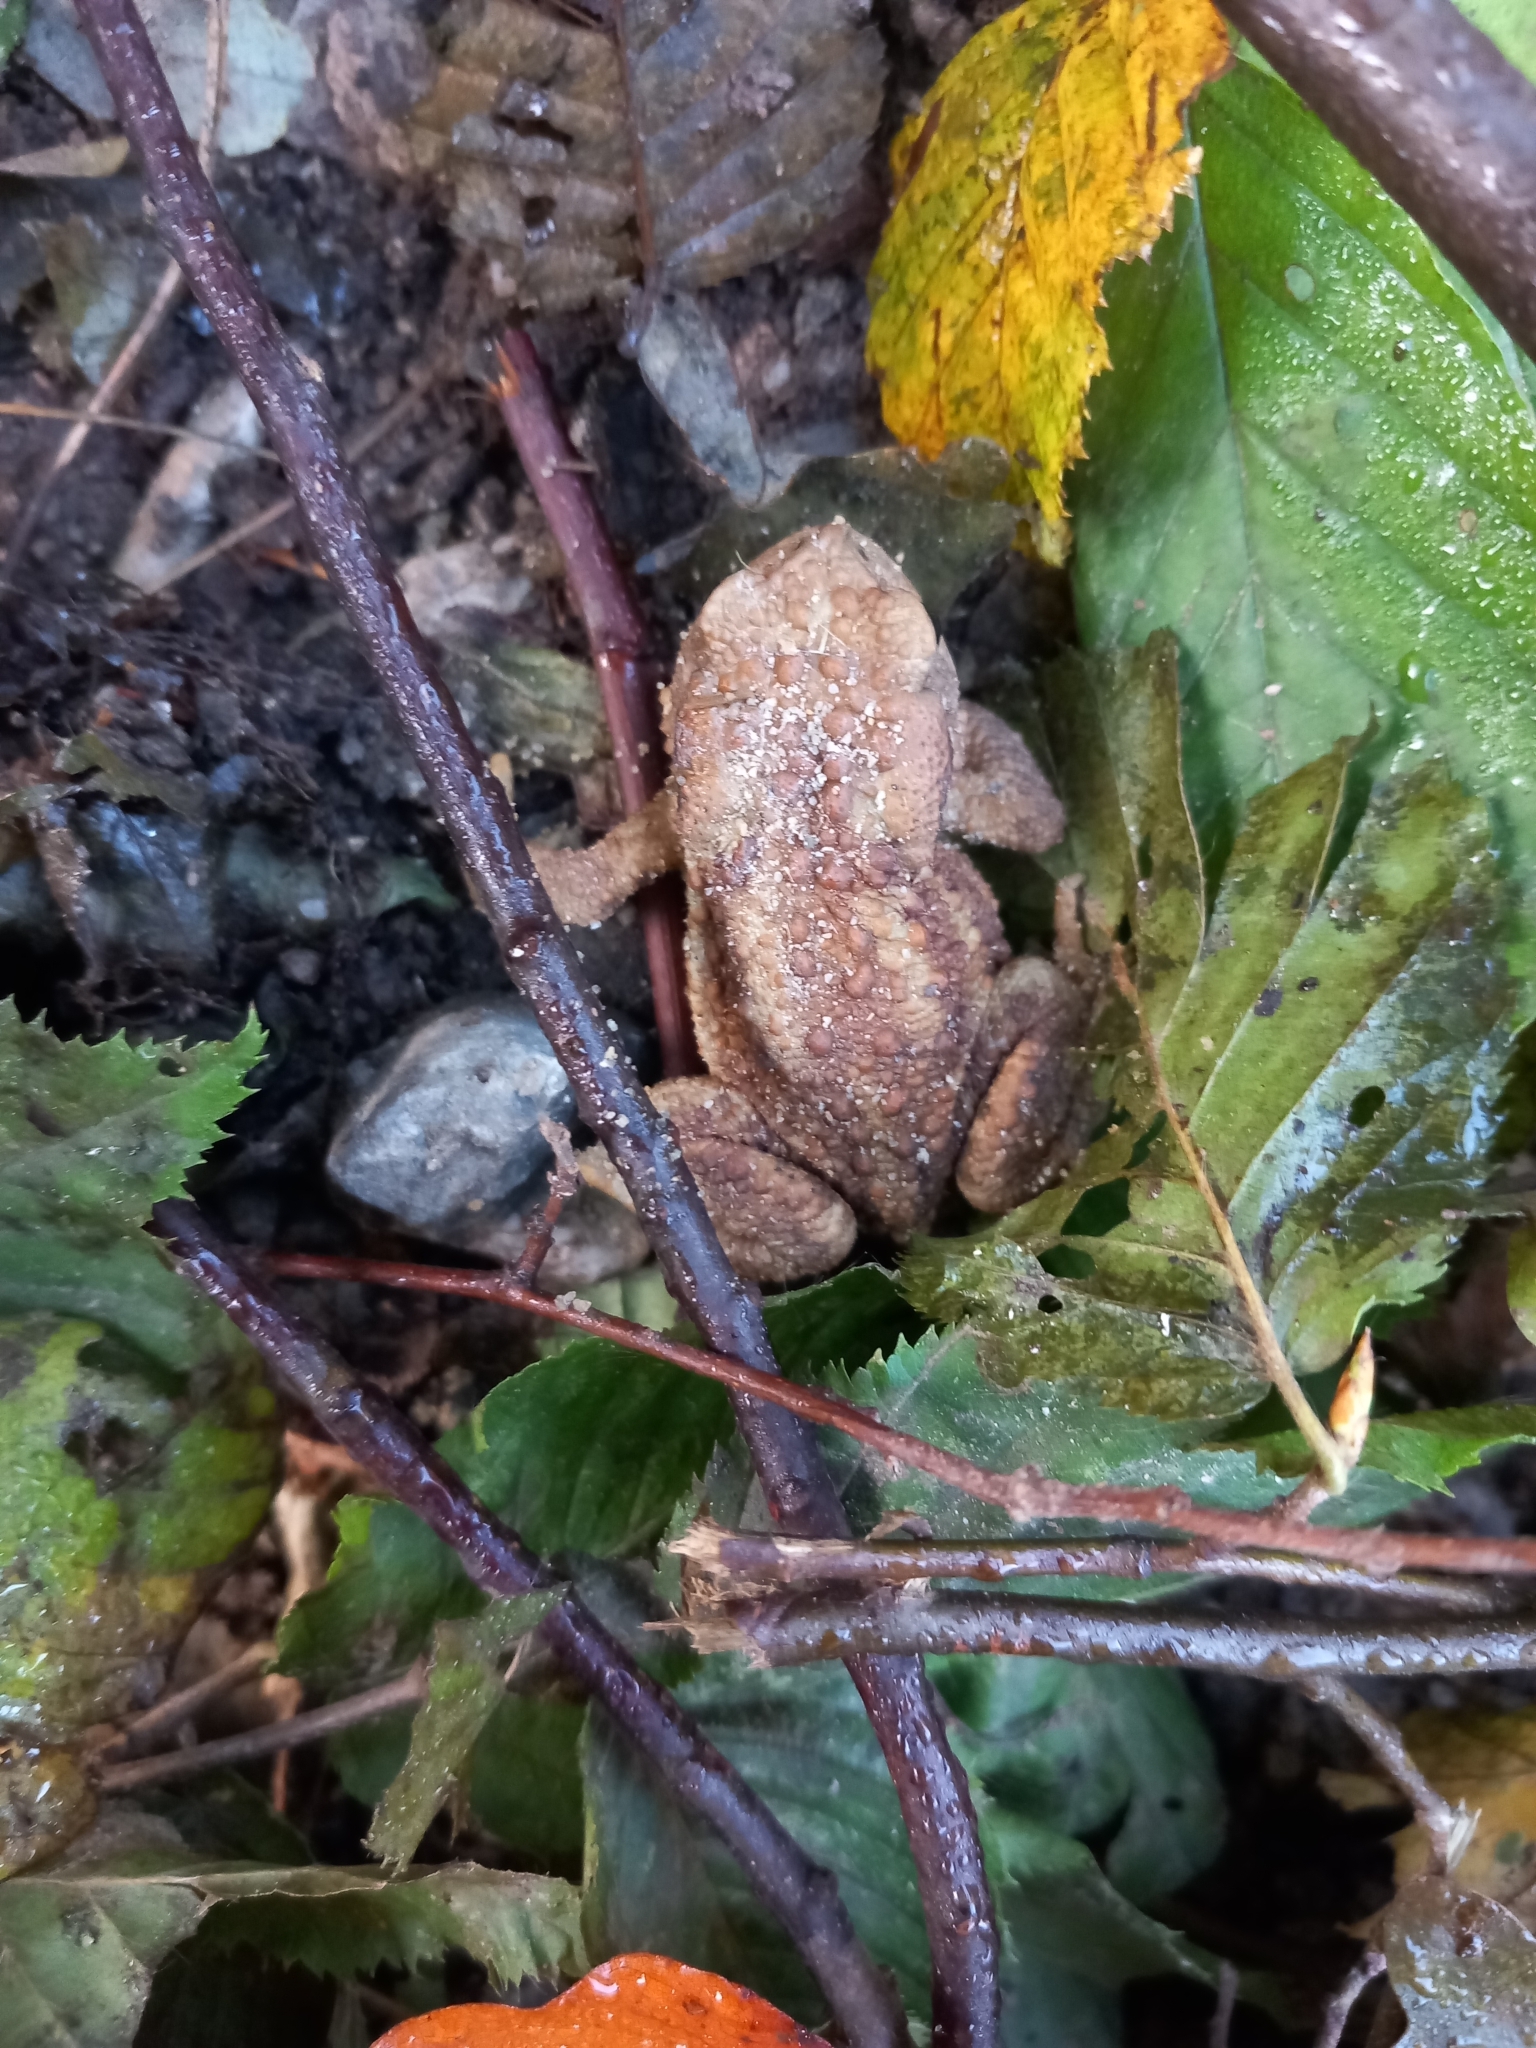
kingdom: Animalia
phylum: Chordata
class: Amphibia
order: Anura
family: Bufonidae
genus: Bufo
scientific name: Bufo bufo
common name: Common toad
